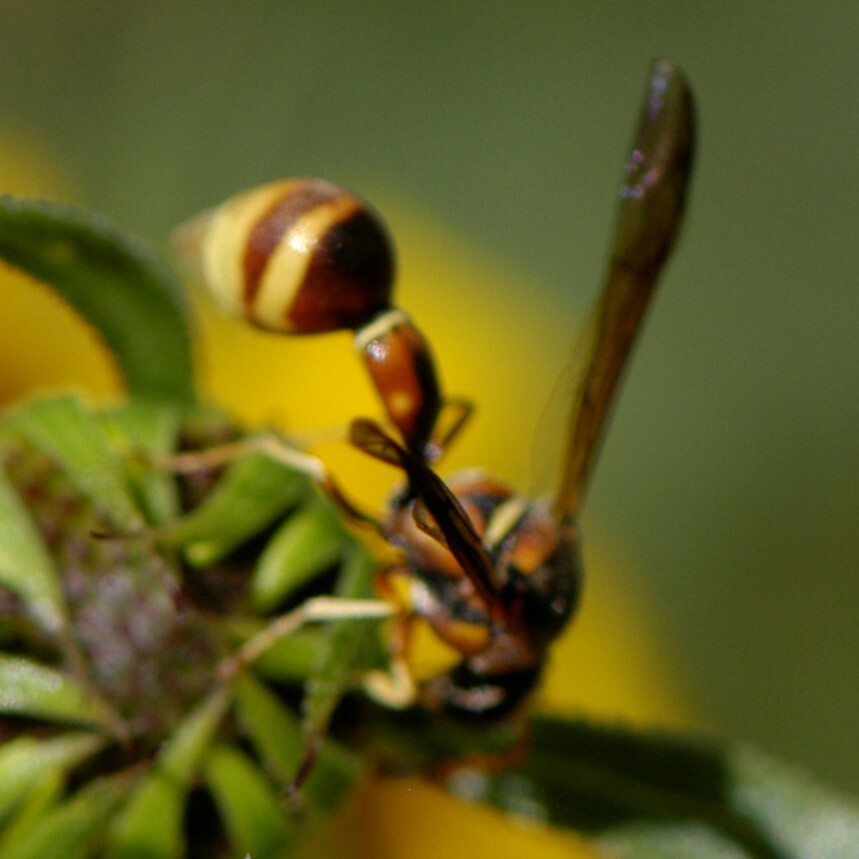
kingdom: Animalia
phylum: Arthropoda
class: Insecta
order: Hymenoptera
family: Vespidae
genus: Eumenes
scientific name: Eumenes americanus
